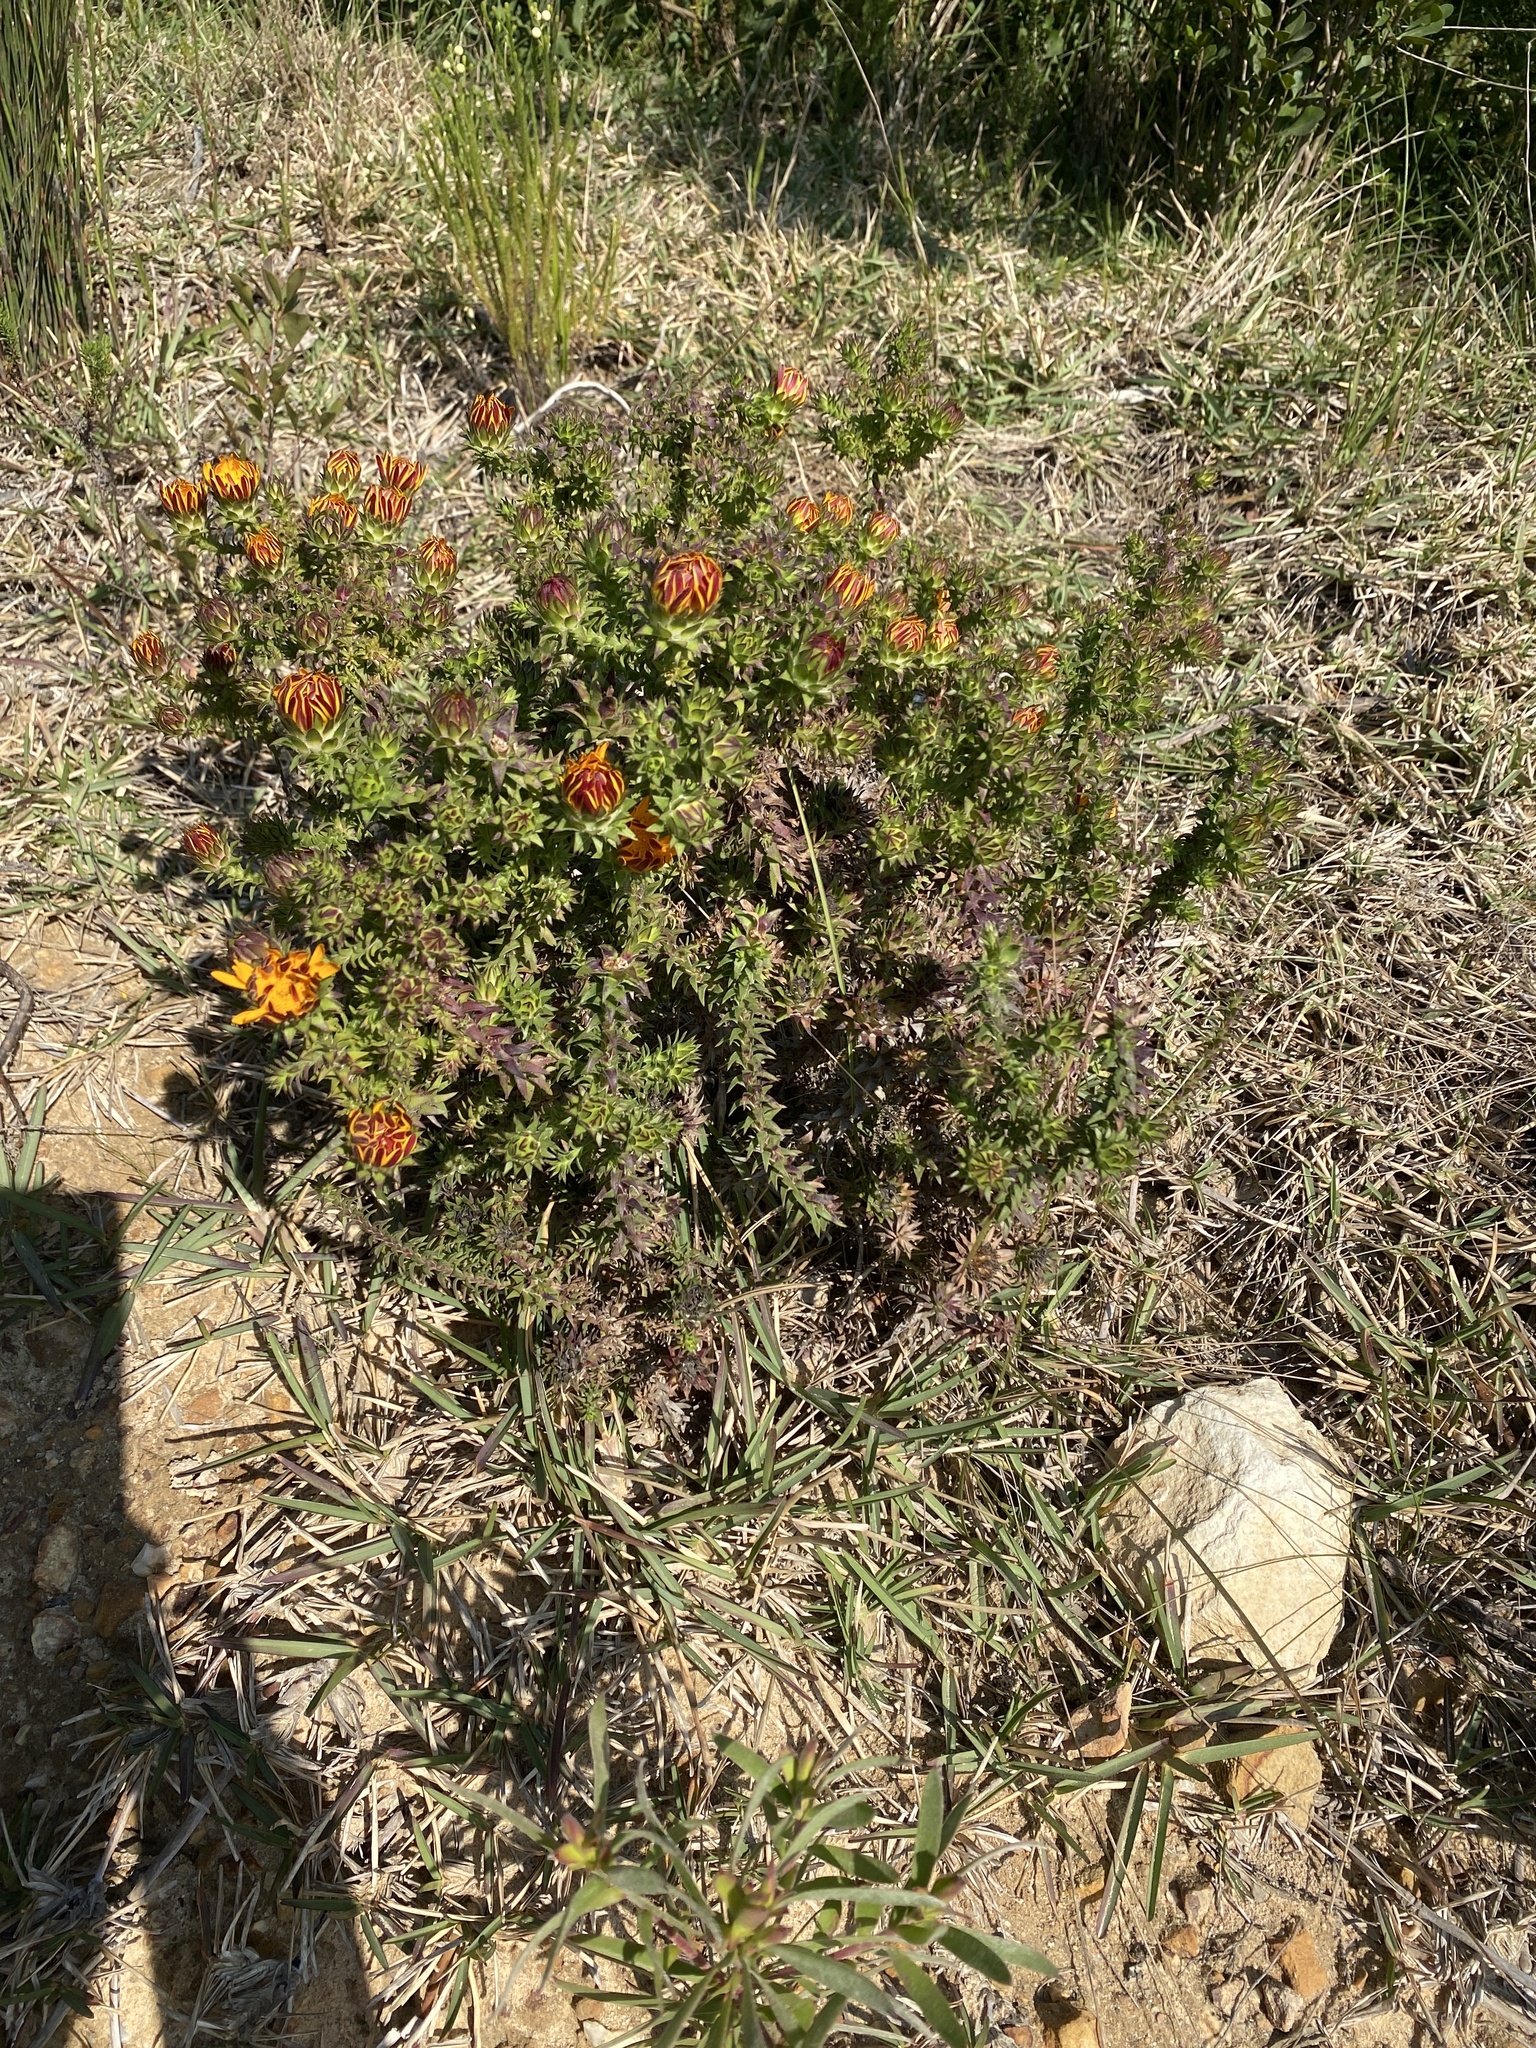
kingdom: Plantae
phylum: Tracheophyta
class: Magnoliopsida
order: Asterales
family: Asteraceae
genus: Oedera
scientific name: Oedera capensis
